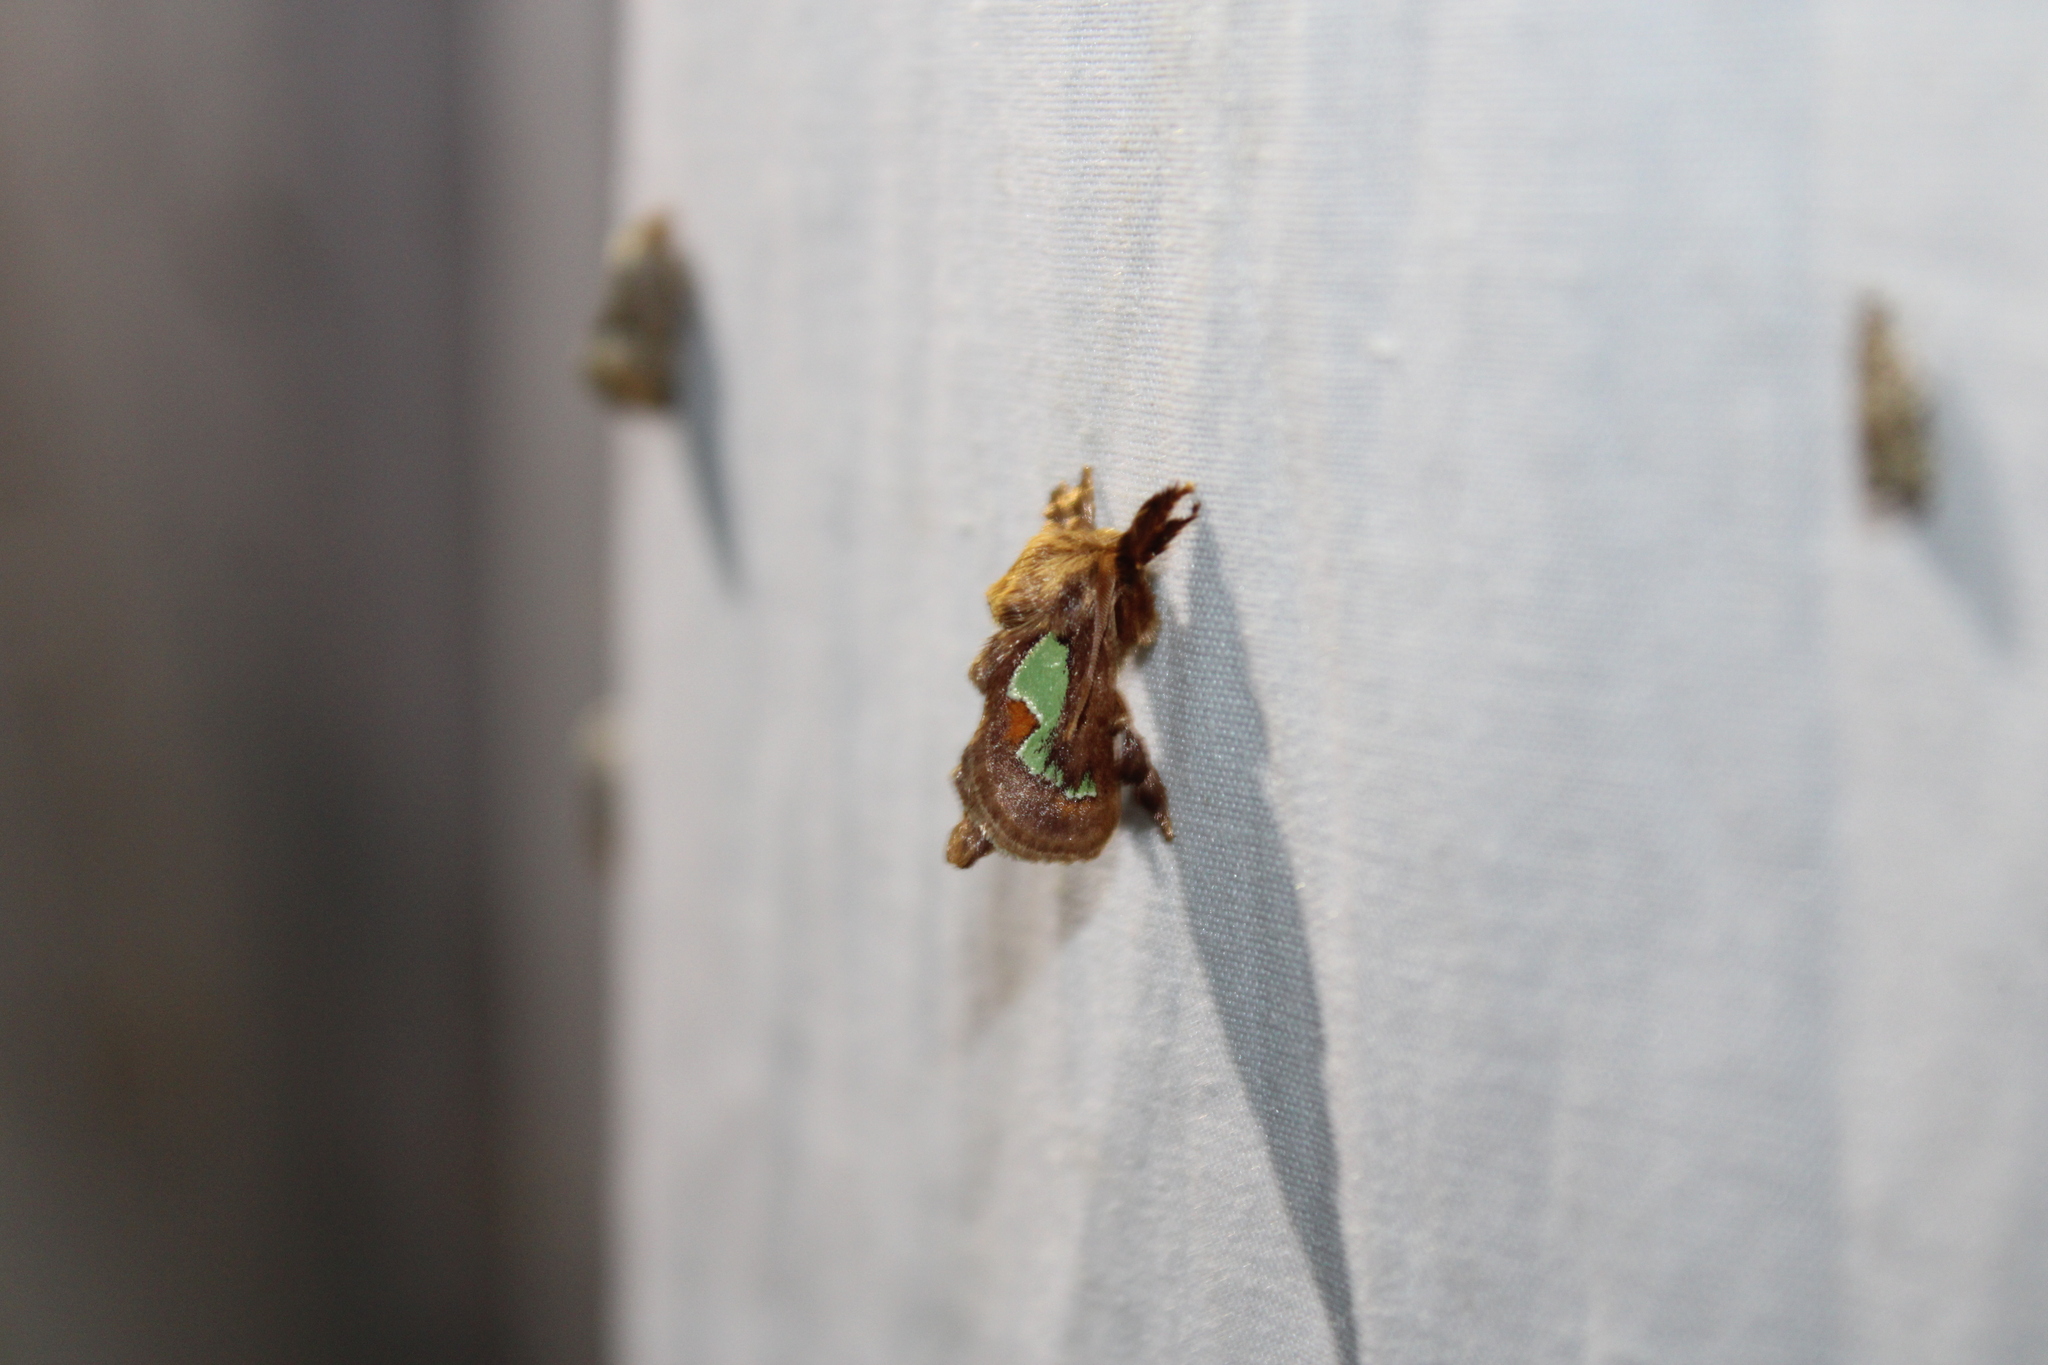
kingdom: Animalia
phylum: Arthropoda
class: Insecta
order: Lepidoptera
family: Limacodidae
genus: Euclea
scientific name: Euclea delphinii
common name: Spiny oak-slug moth
